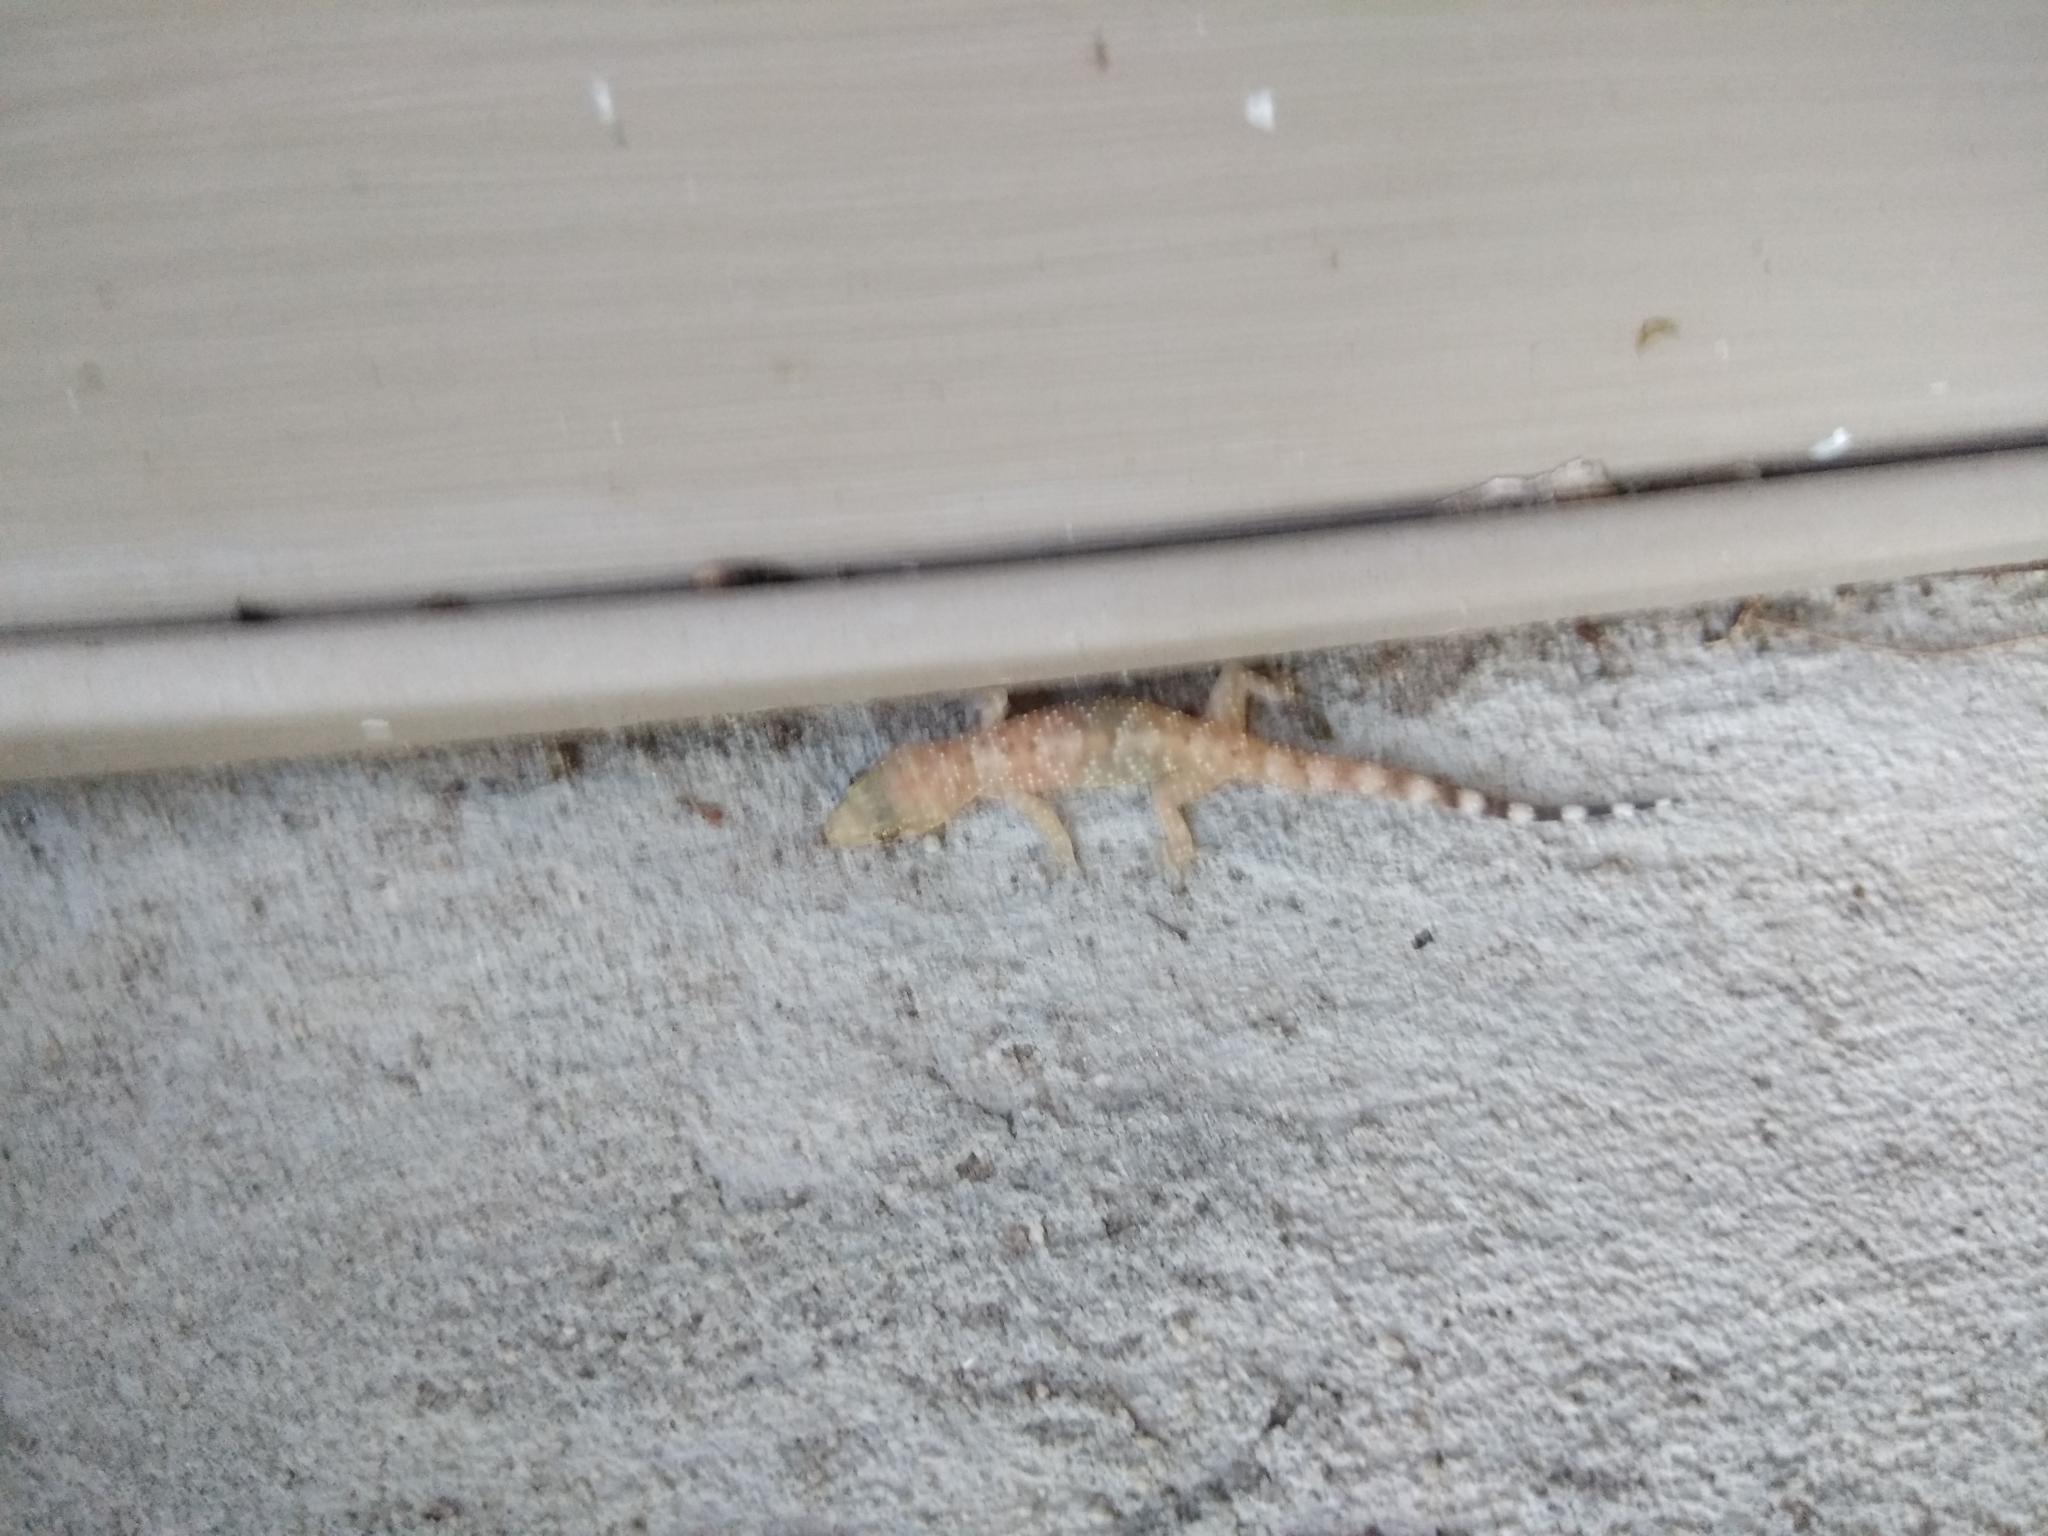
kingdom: Animalia
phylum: Chordata
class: Squamata
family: Gekkonidae
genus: Hemidactylus
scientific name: Hemidactylus turcicus
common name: Turkish gecko
